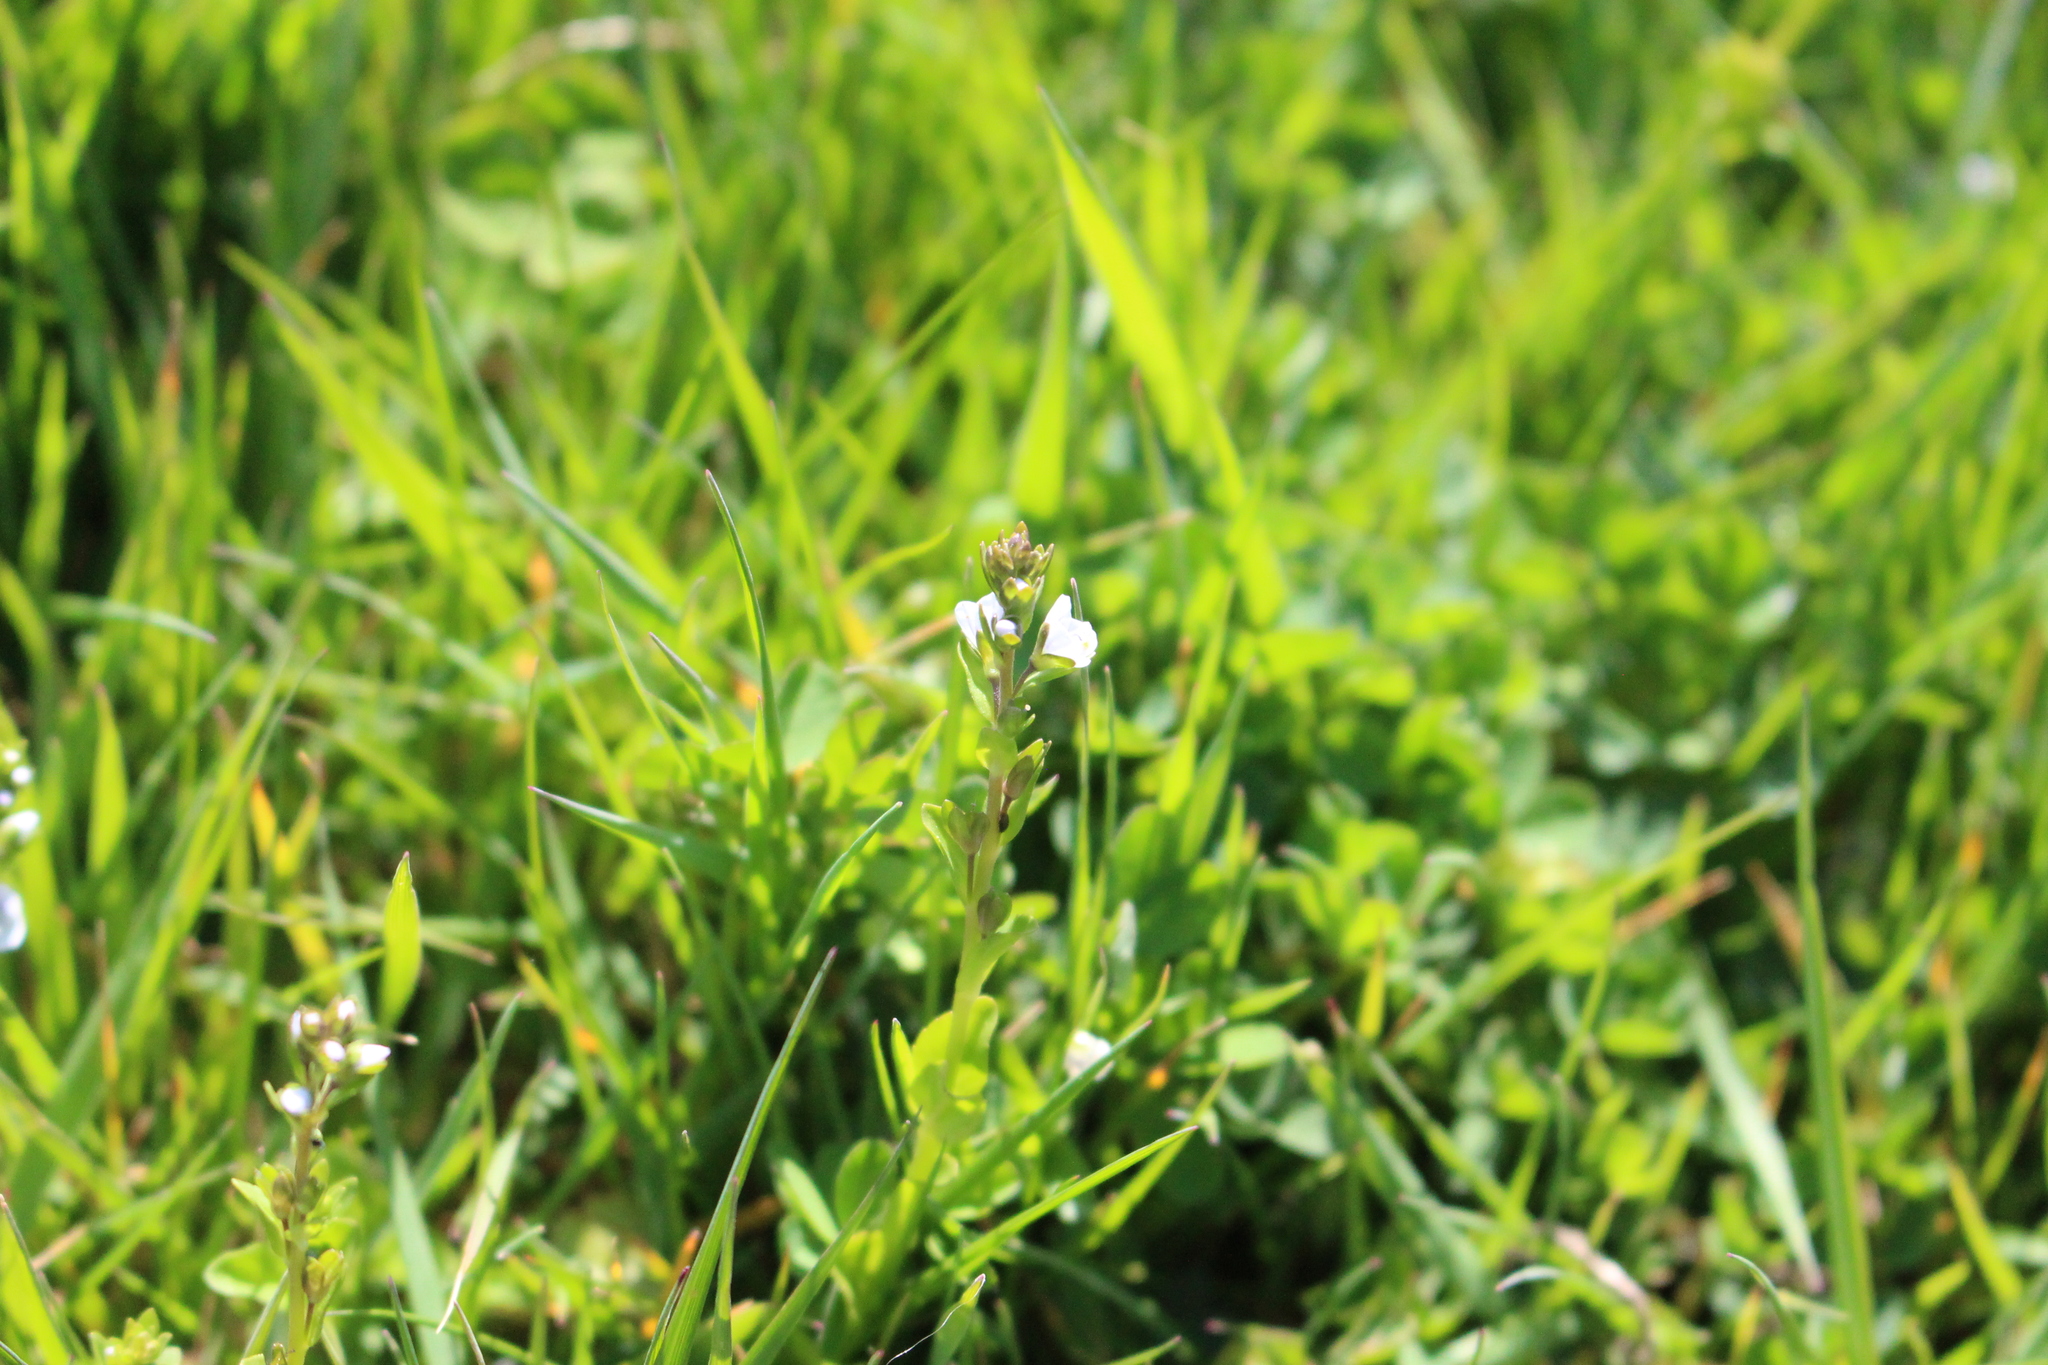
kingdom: Plantae
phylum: Tracheophyta
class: Magnoliopsida
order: Lamiales
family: Plantaginaceae
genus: Veronica
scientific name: Veronica serpyllifolia
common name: Thyme-leaved speedwell
